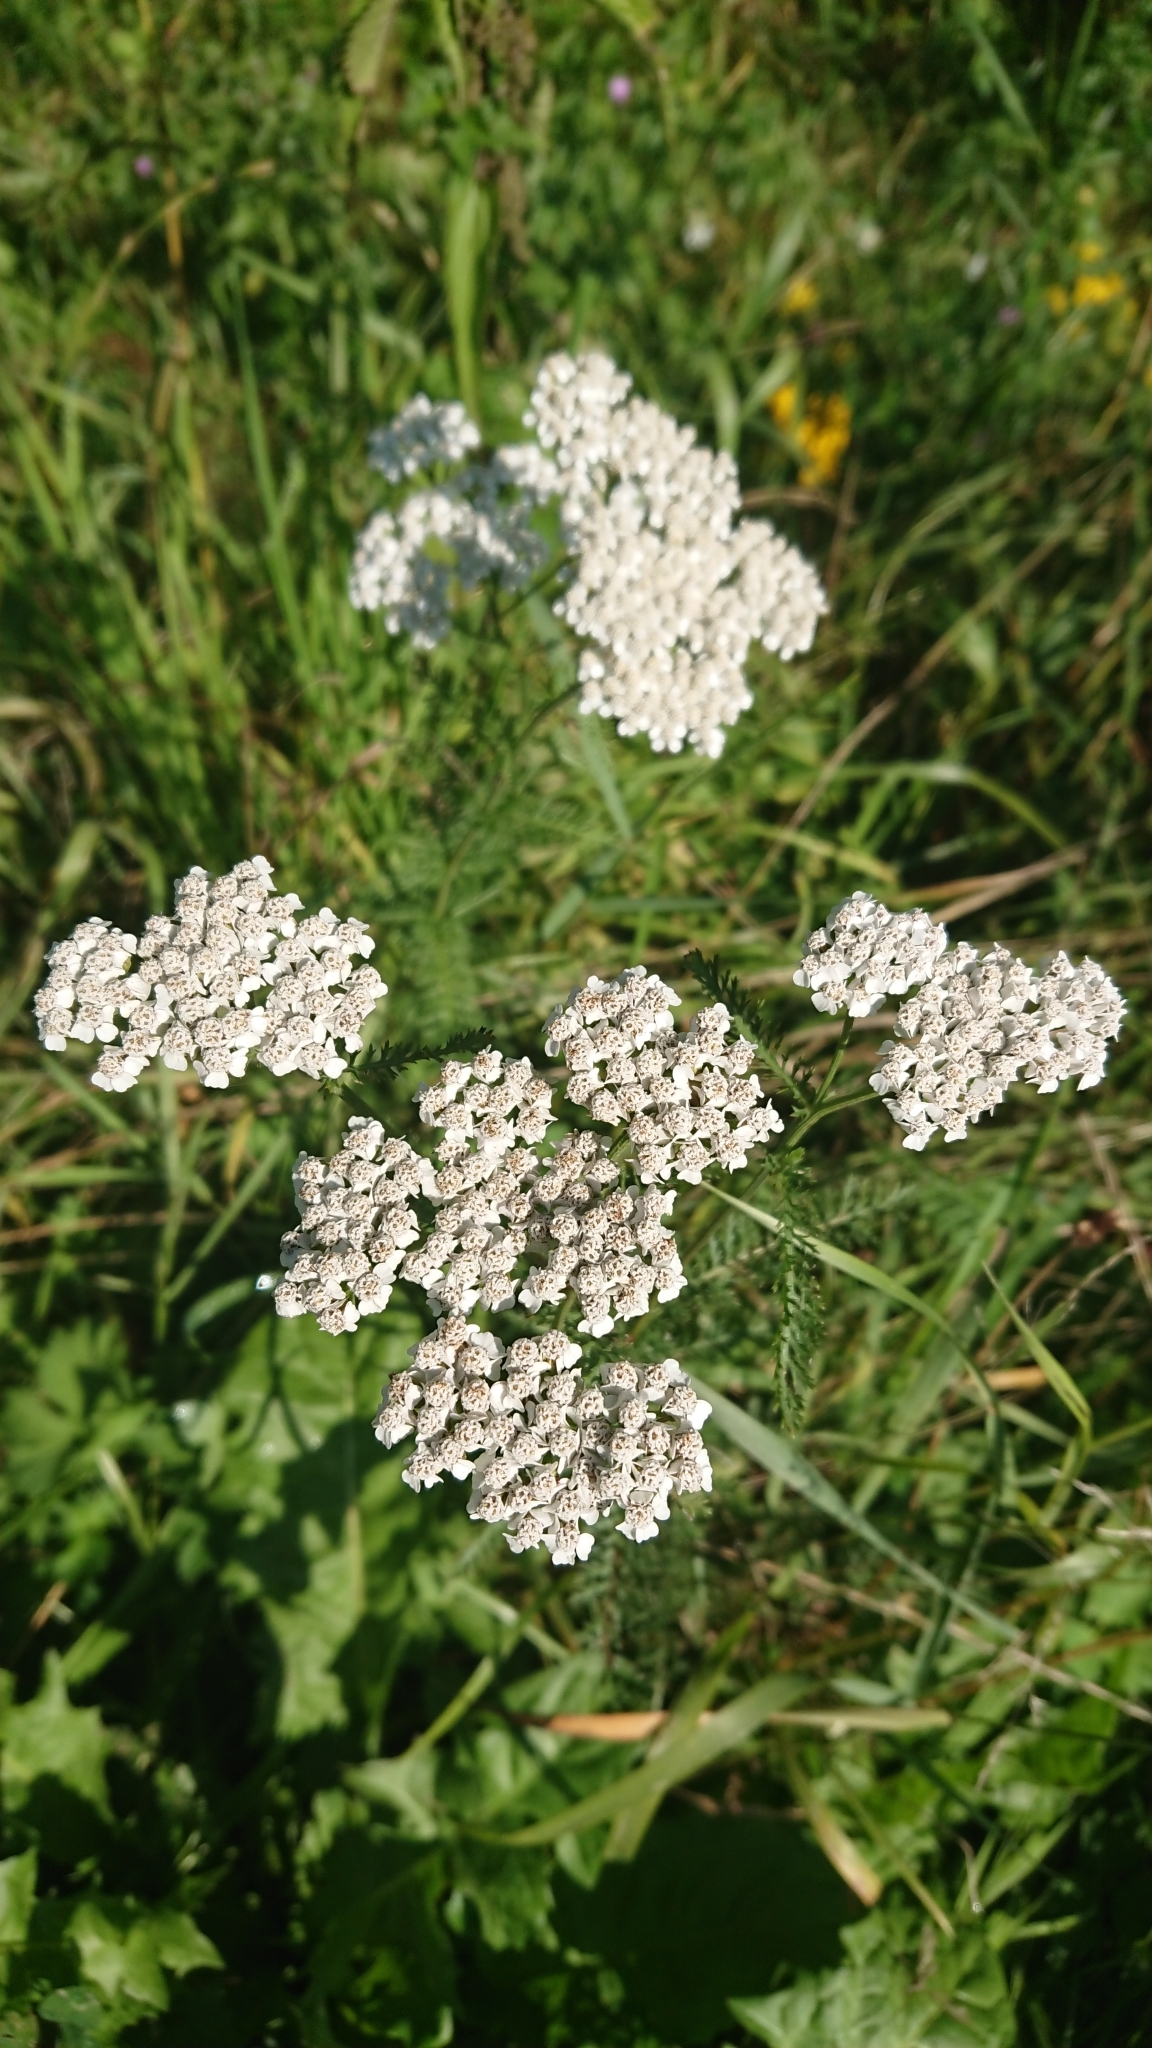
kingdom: Plantae
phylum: Tracheophyta
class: Magnoliopsida
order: Asterales
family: Asteraceae
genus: Achillea
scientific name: Achillea millefolium
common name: Yarrow
